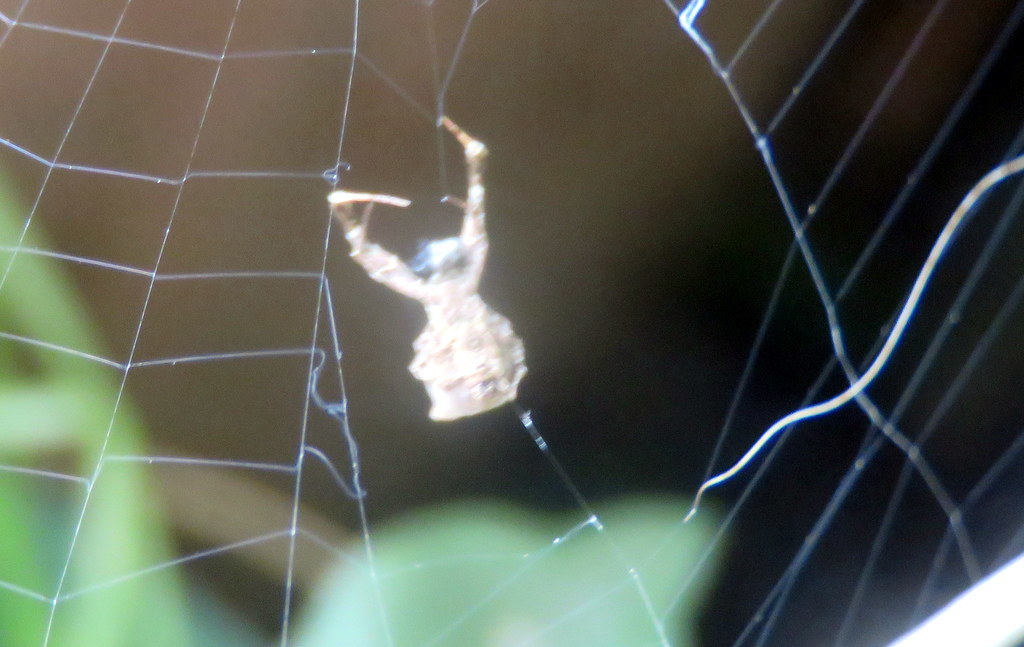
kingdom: Animalia
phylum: Arthropoda
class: Arachnida
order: Araneae
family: Uloboridae
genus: Uloborus
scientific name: Uloborus plumipes
